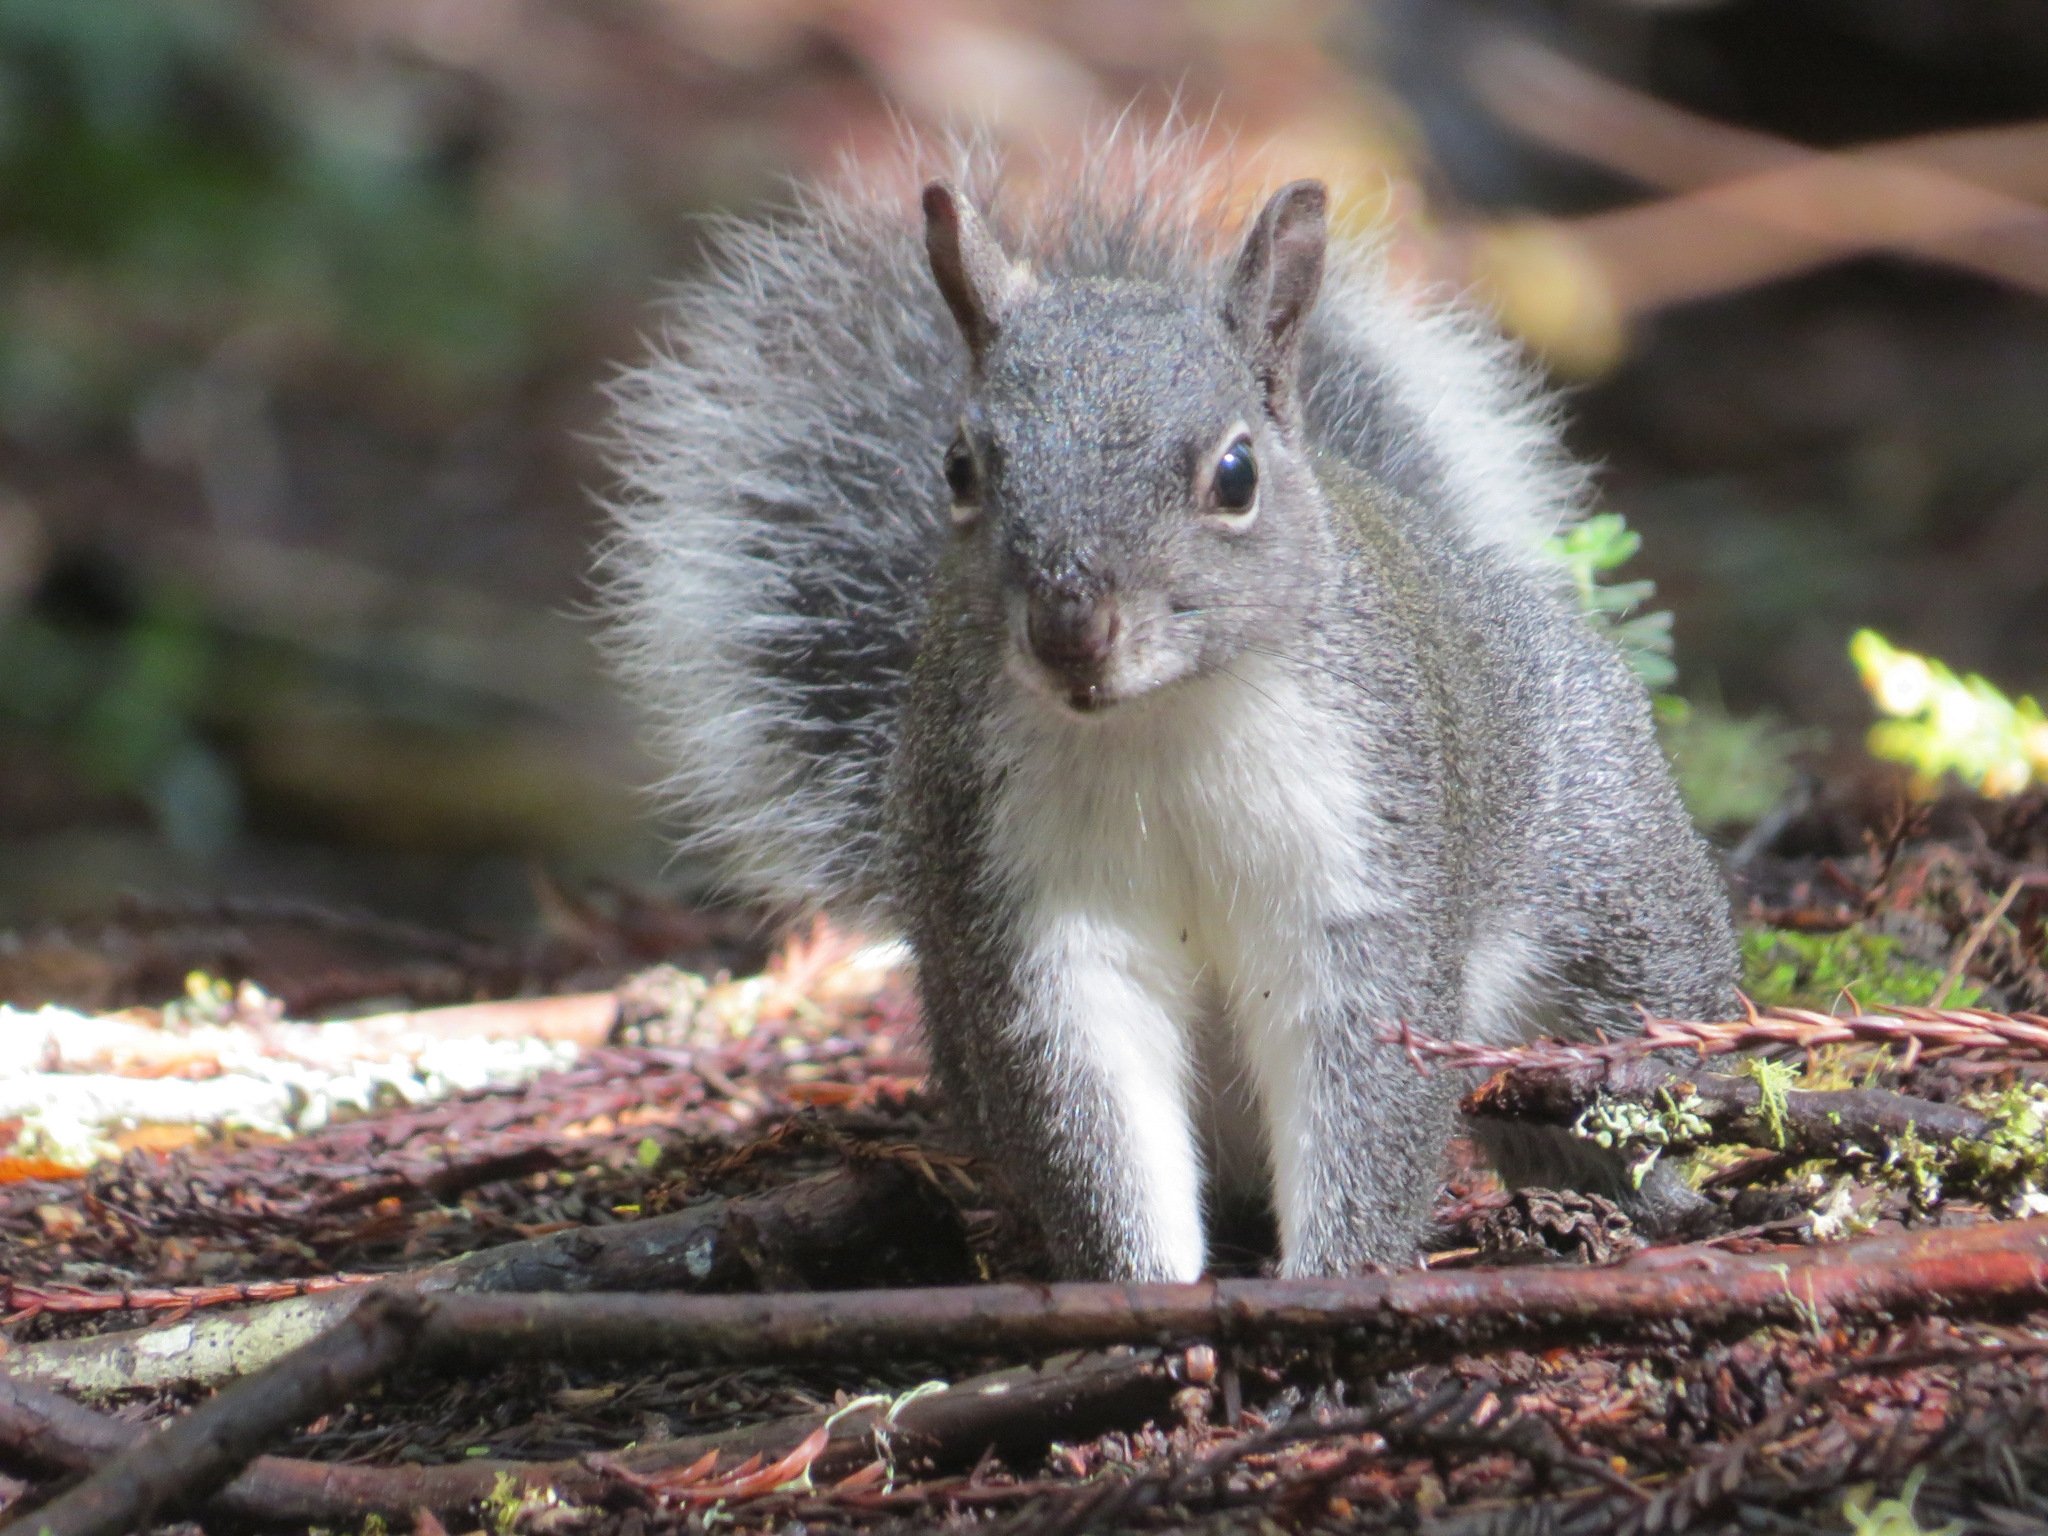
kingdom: Animalia
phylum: Chordata
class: Mammalia
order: Rodentia
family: Sciuridae
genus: Sciurus
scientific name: Sciurus griseus
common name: Western gray squirrel
